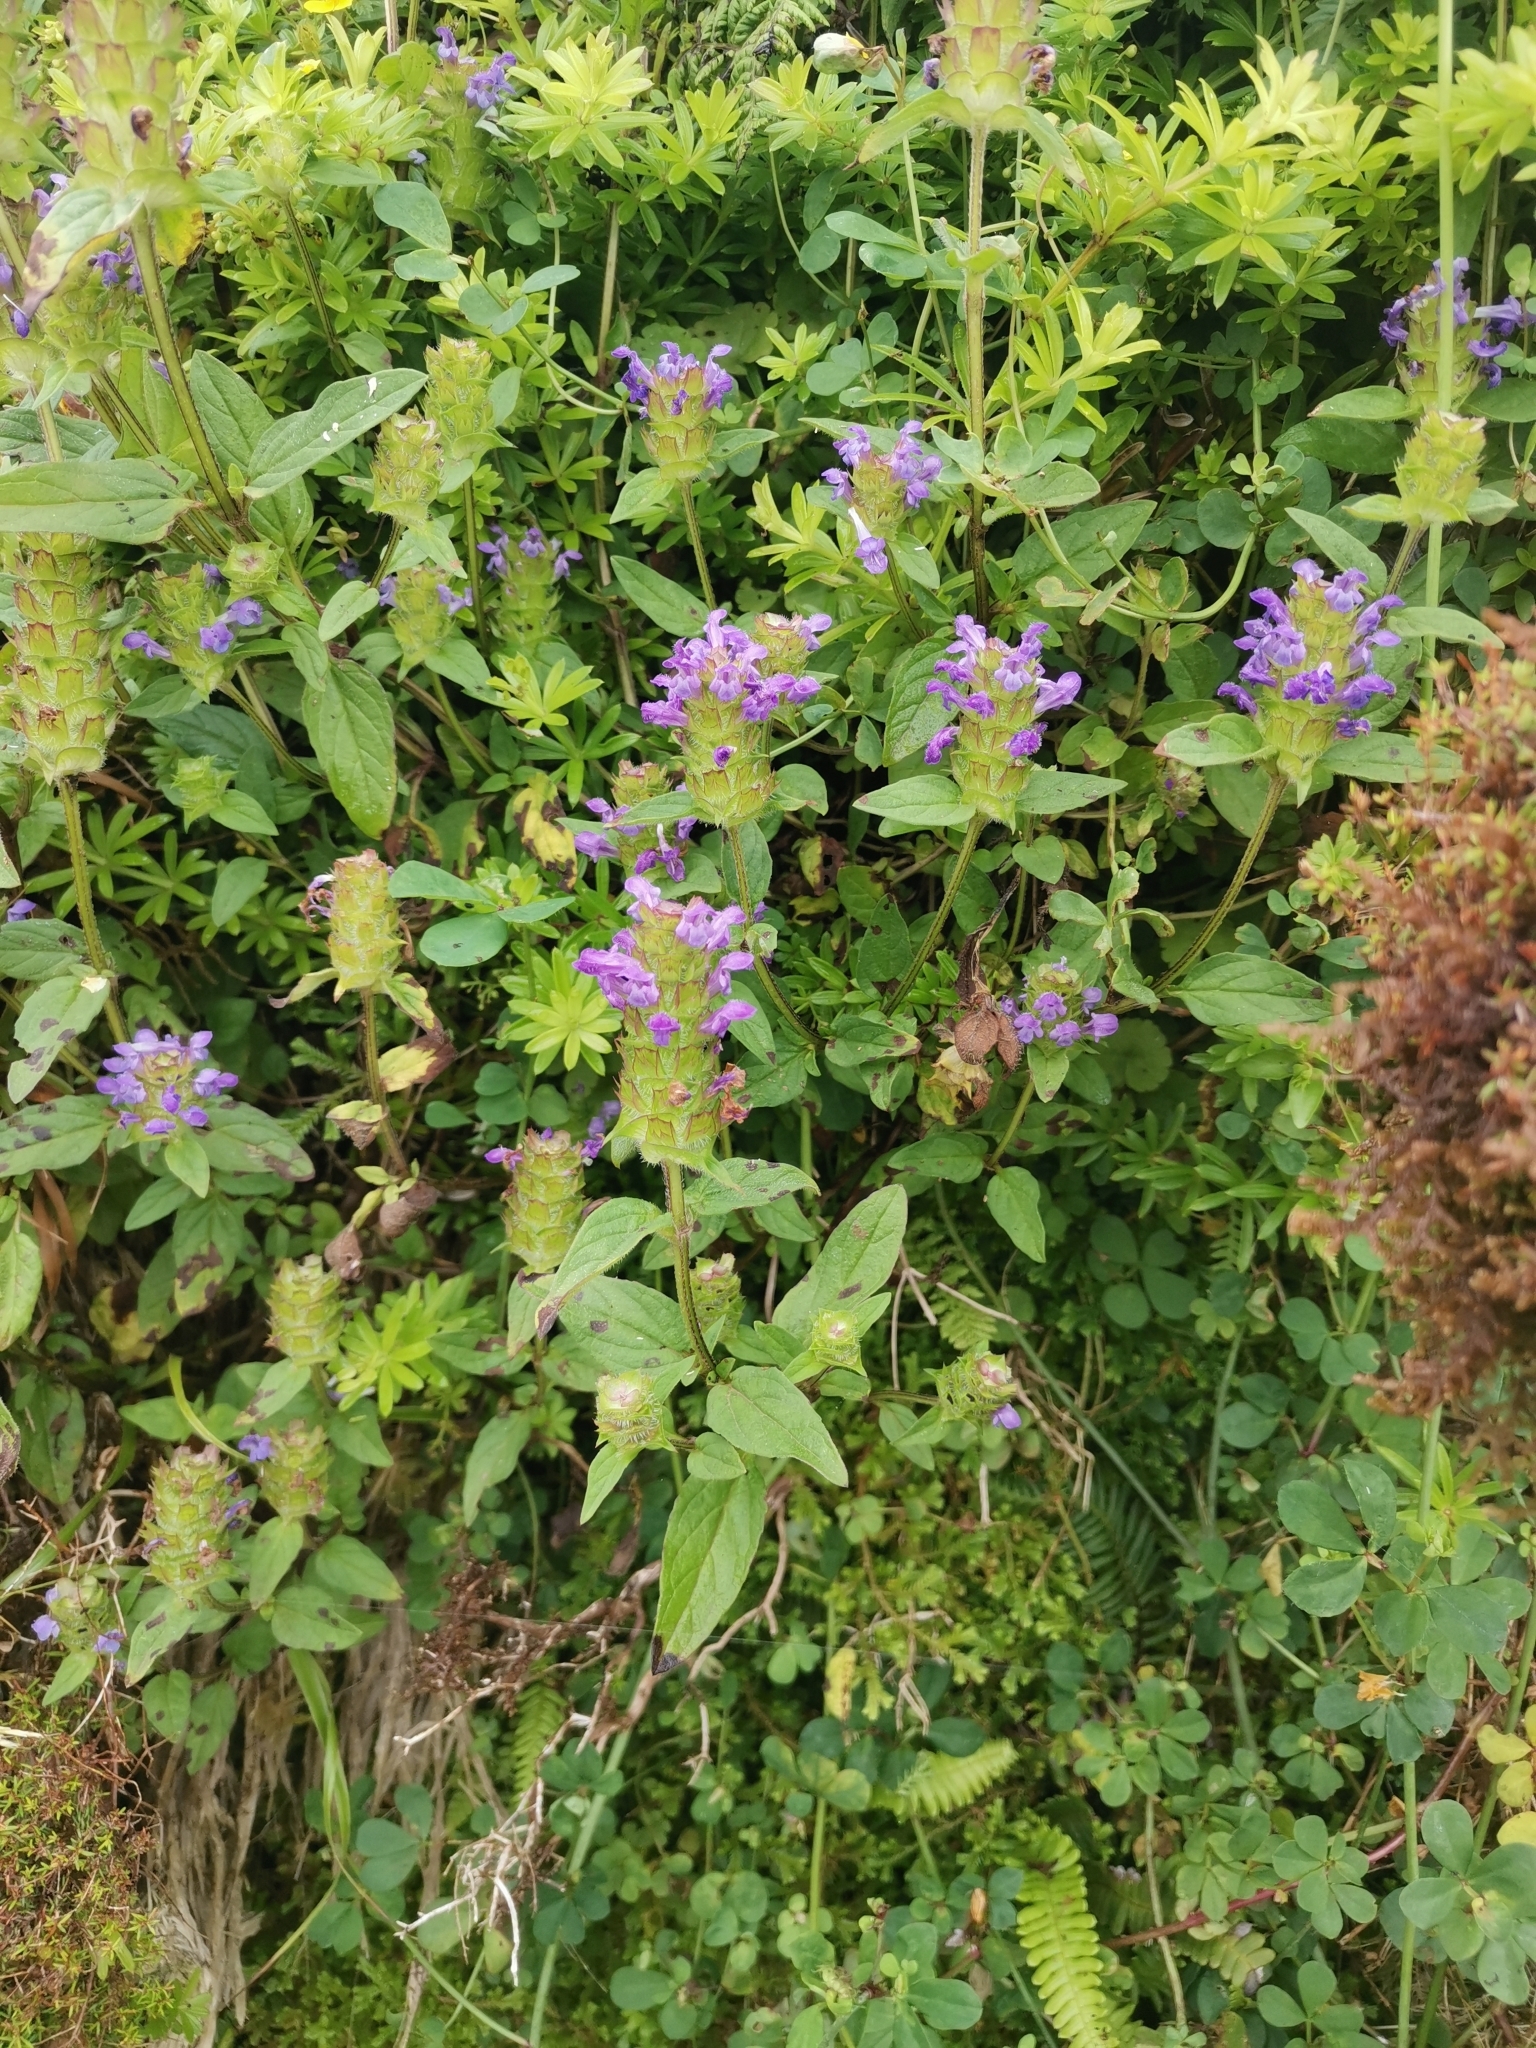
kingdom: Plantae
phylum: Tracheophyta
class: Magnoliopsida
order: Lamiales
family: Lamiaceae
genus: Prunella
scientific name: Prunella vulgaris
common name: Heal-all
